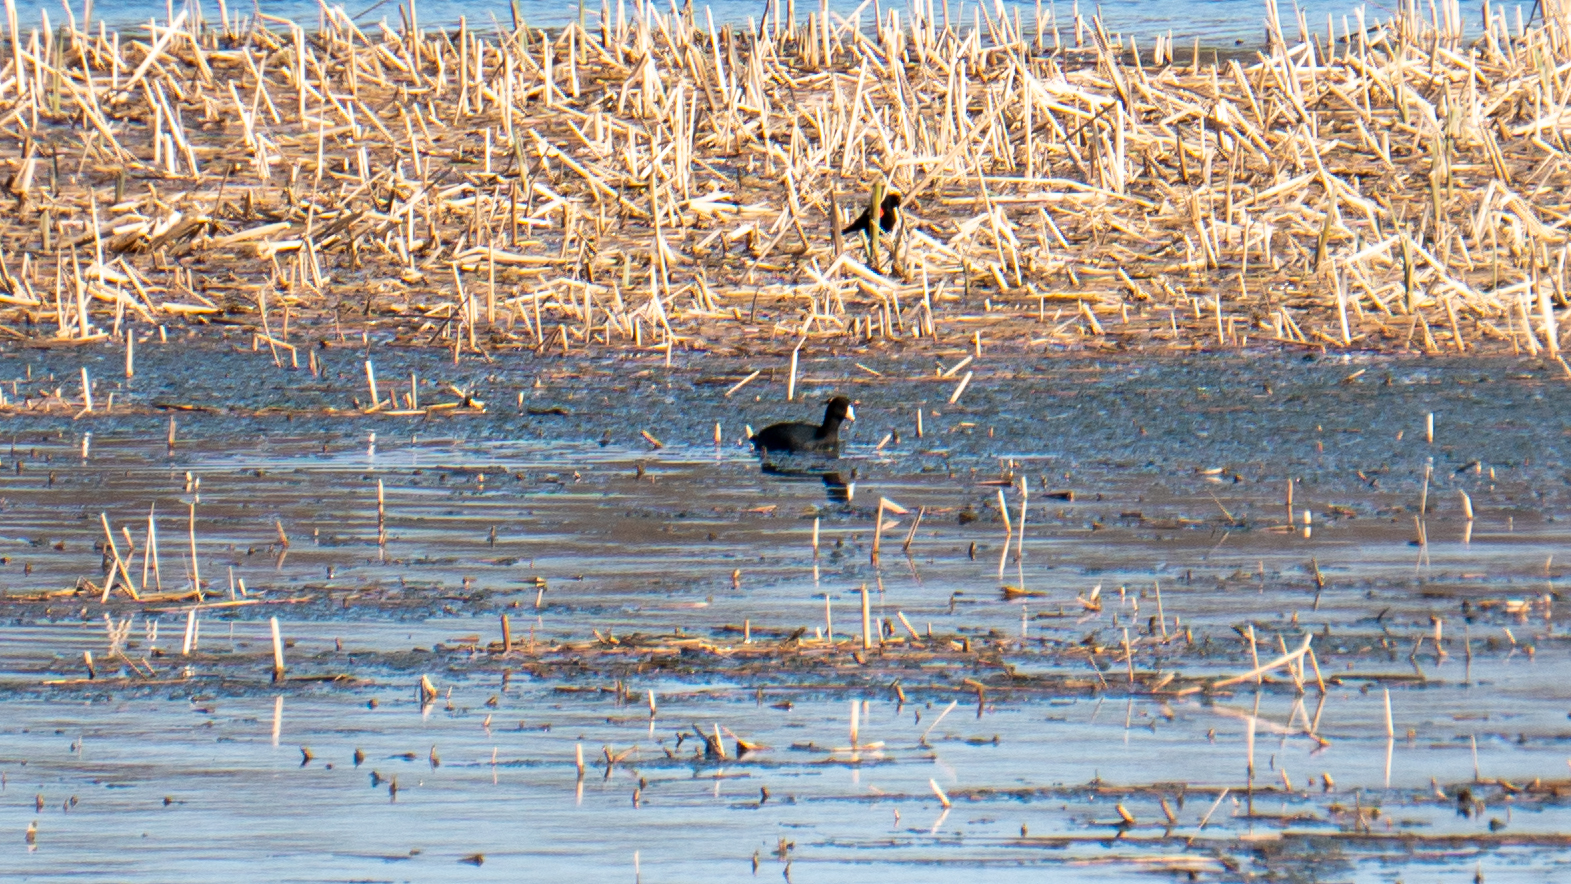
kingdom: Animalia
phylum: Chordata
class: Aves
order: Gruiformes
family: Rallidae
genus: Fulica
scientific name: Fulica americana
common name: American coot
